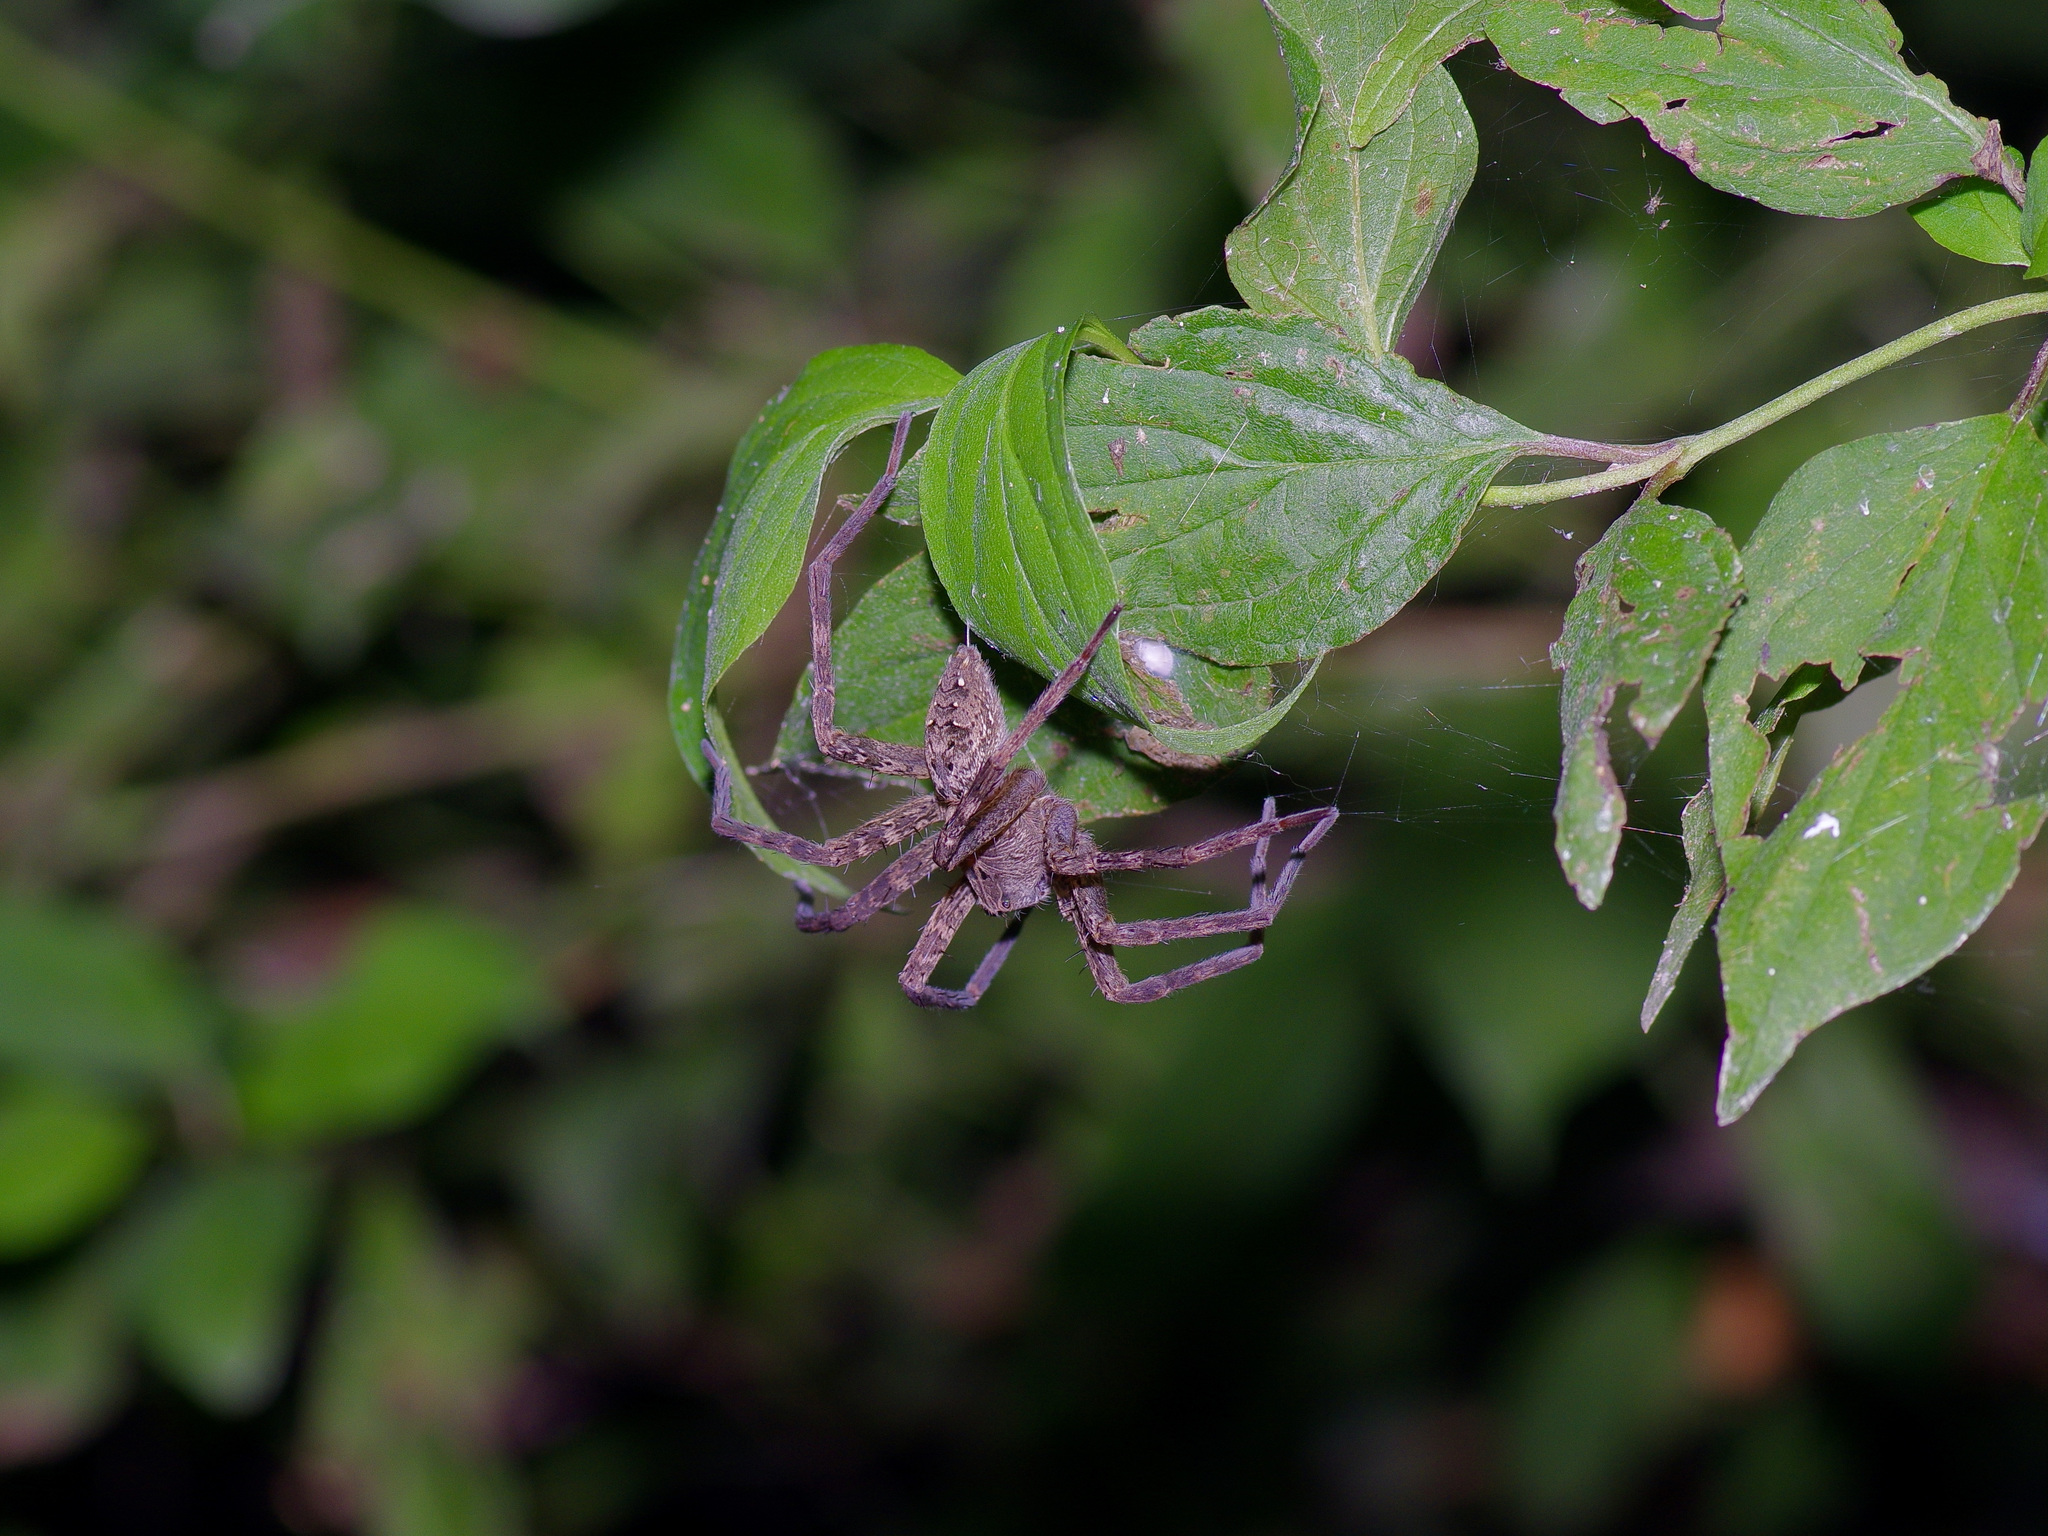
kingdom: Animalia
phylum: Arthropoda
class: Arachnida
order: Araneae
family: Pisauridae
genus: Dolomedes
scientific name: Dolomedes vittatus
